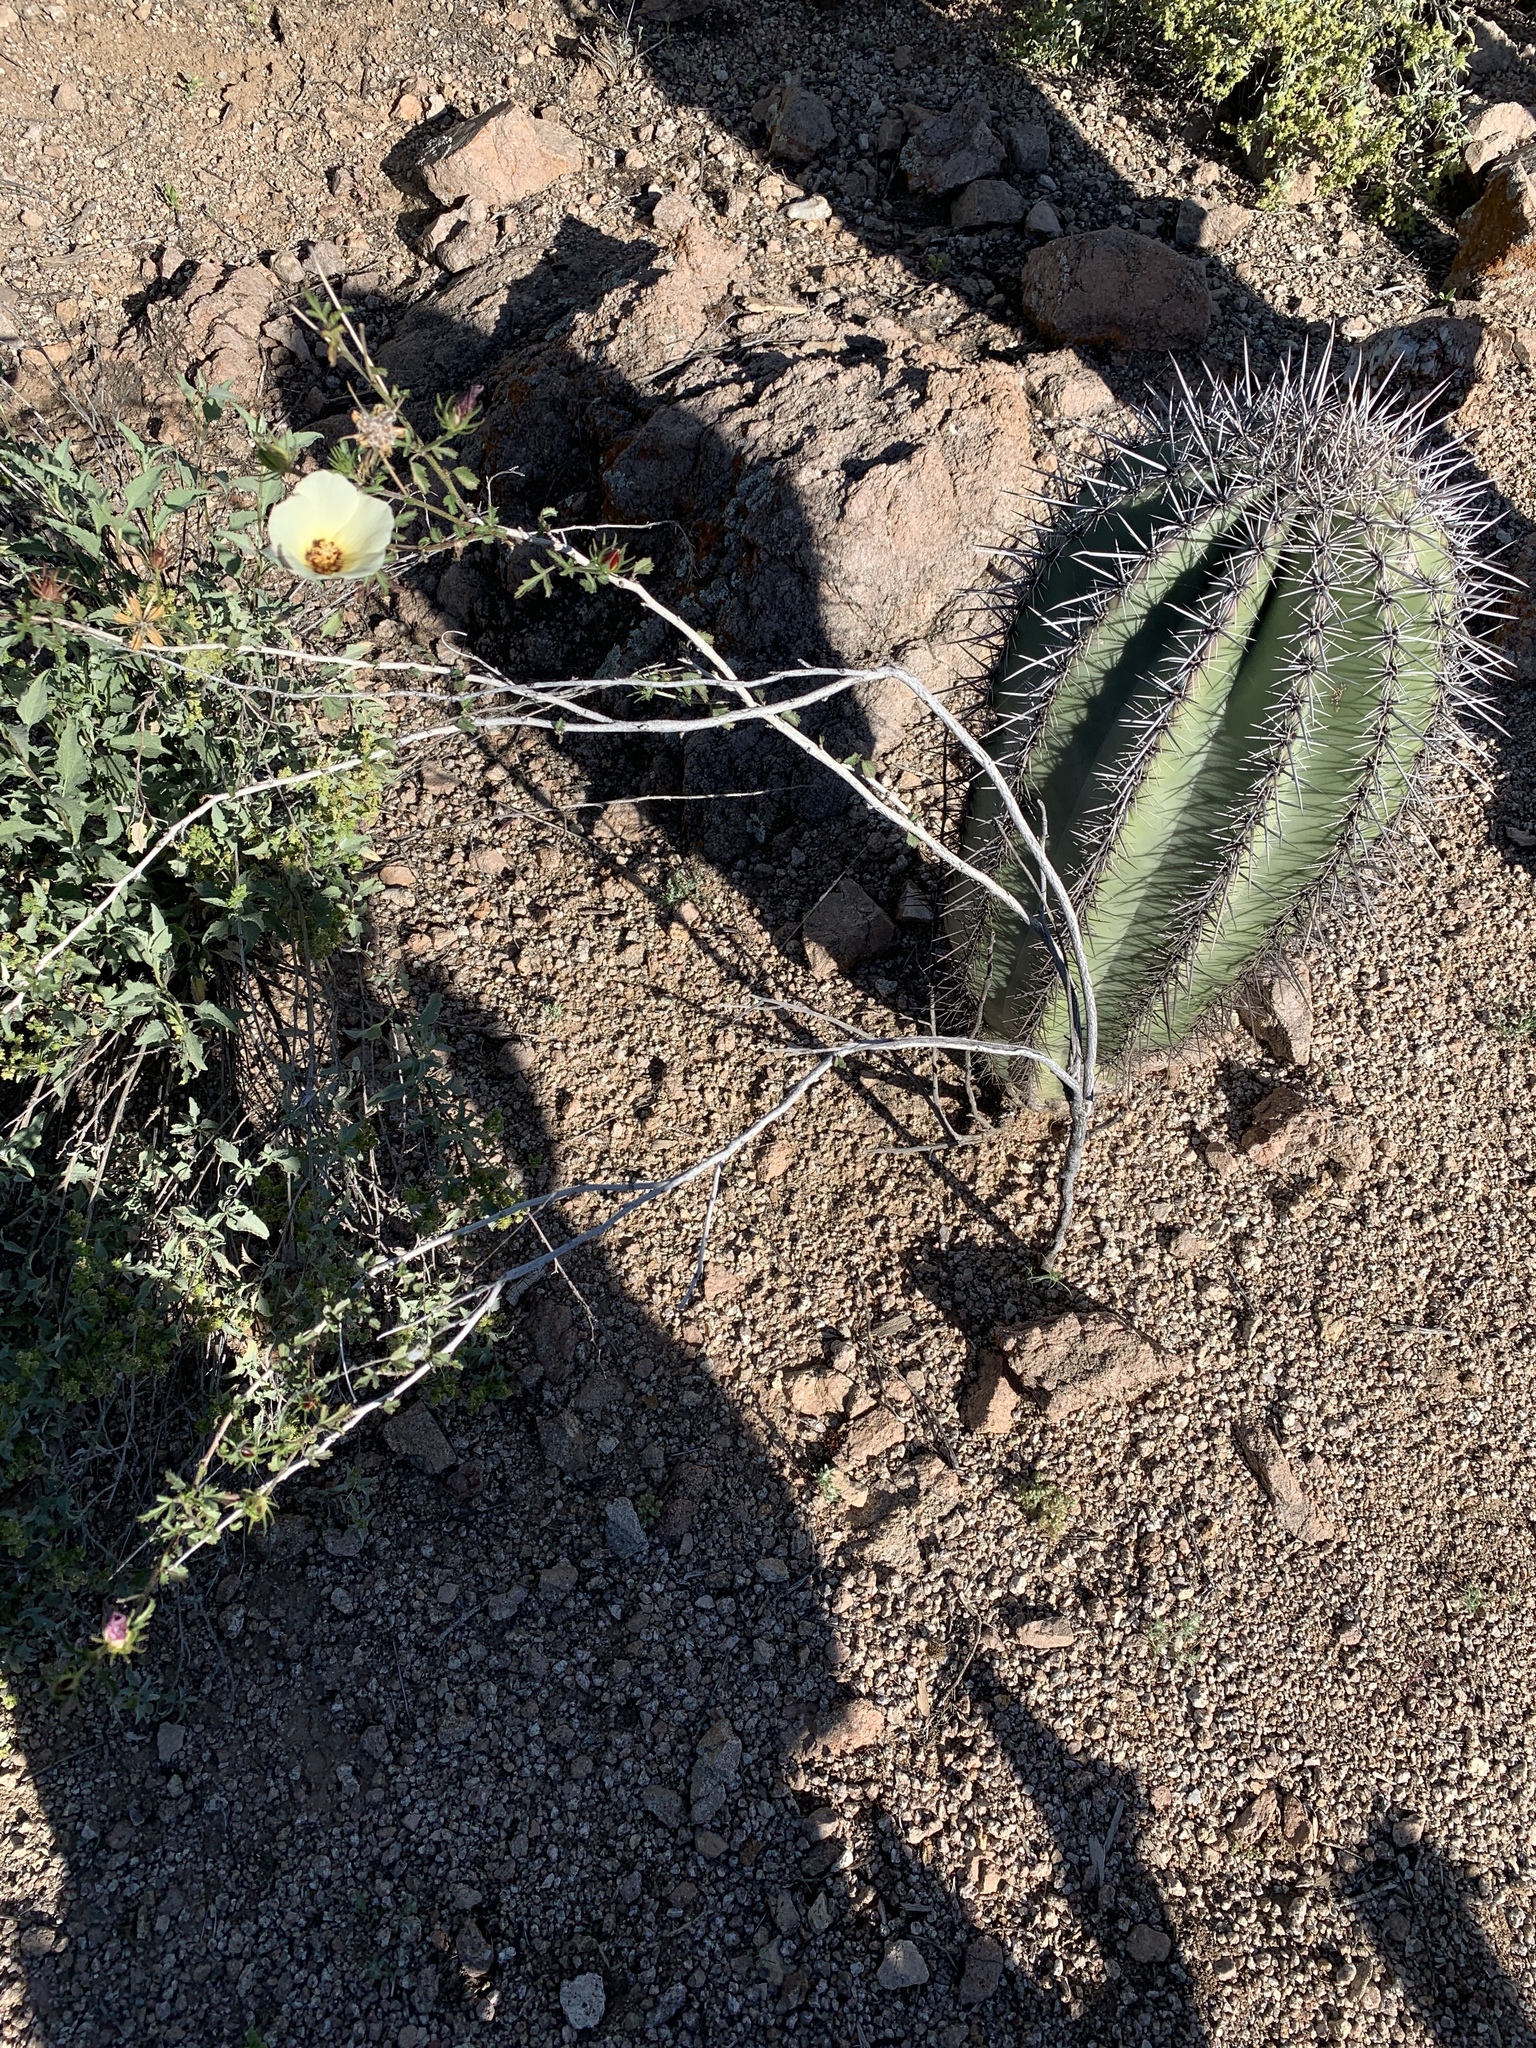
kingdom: Plantae
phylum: Tracheophyta
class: Magnoliopsida
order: Malvales
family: Malvaceae
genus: Hibiscus
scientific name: Hibiscus coulteri
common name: Desert rose-mallow
